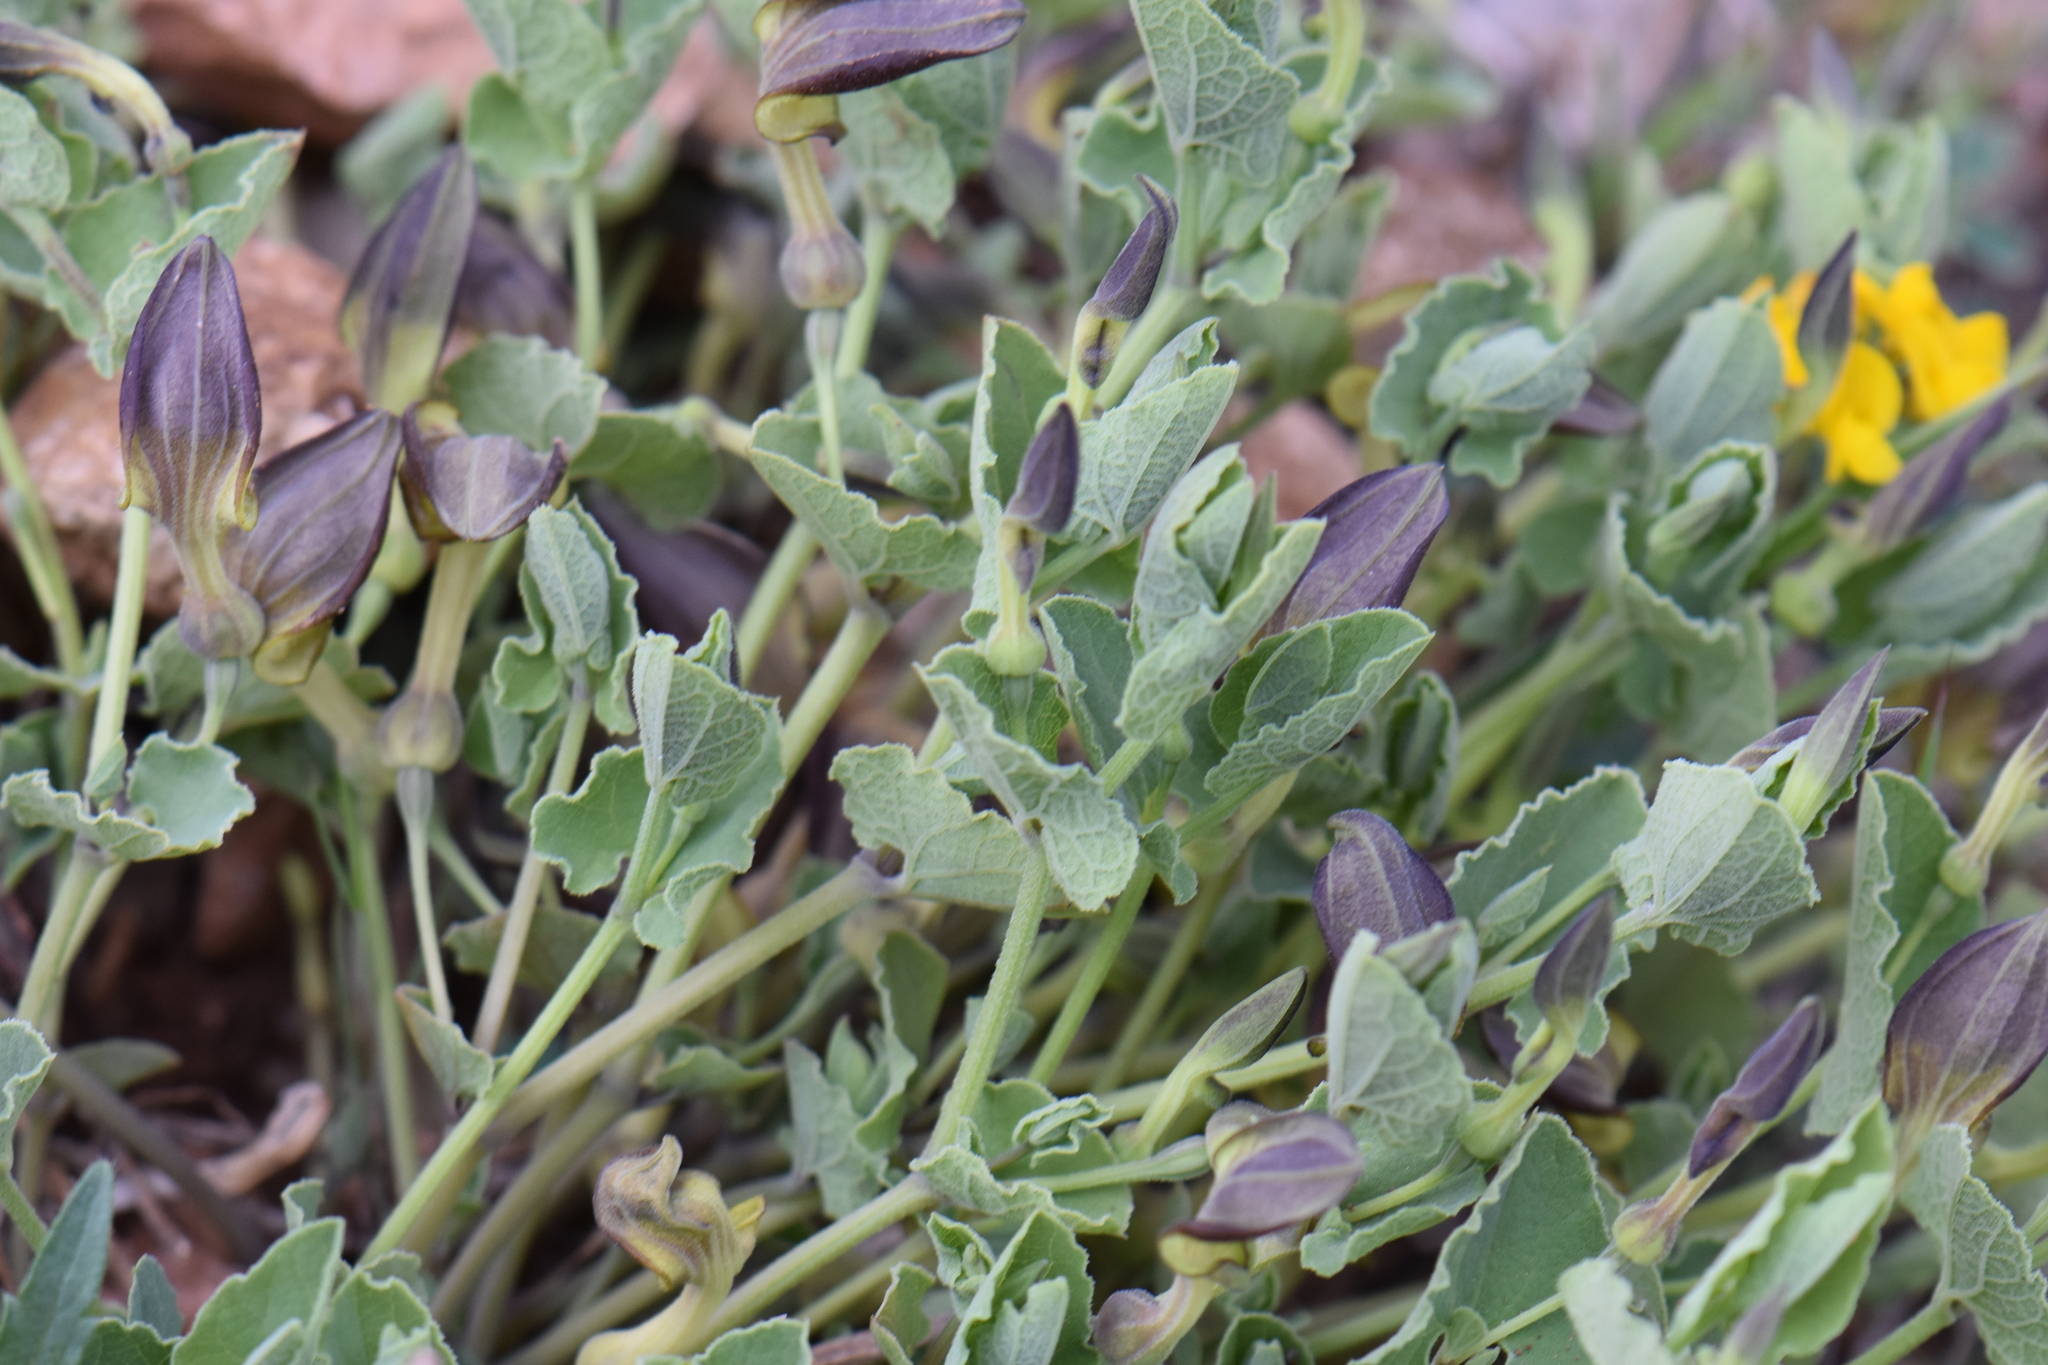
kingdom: Plantae
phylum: Tracheophyta
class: Magnoliopsida
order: Piperales
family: Aristolochiaceae
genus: Aristolochia
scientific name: Aristolochia pistolochia
